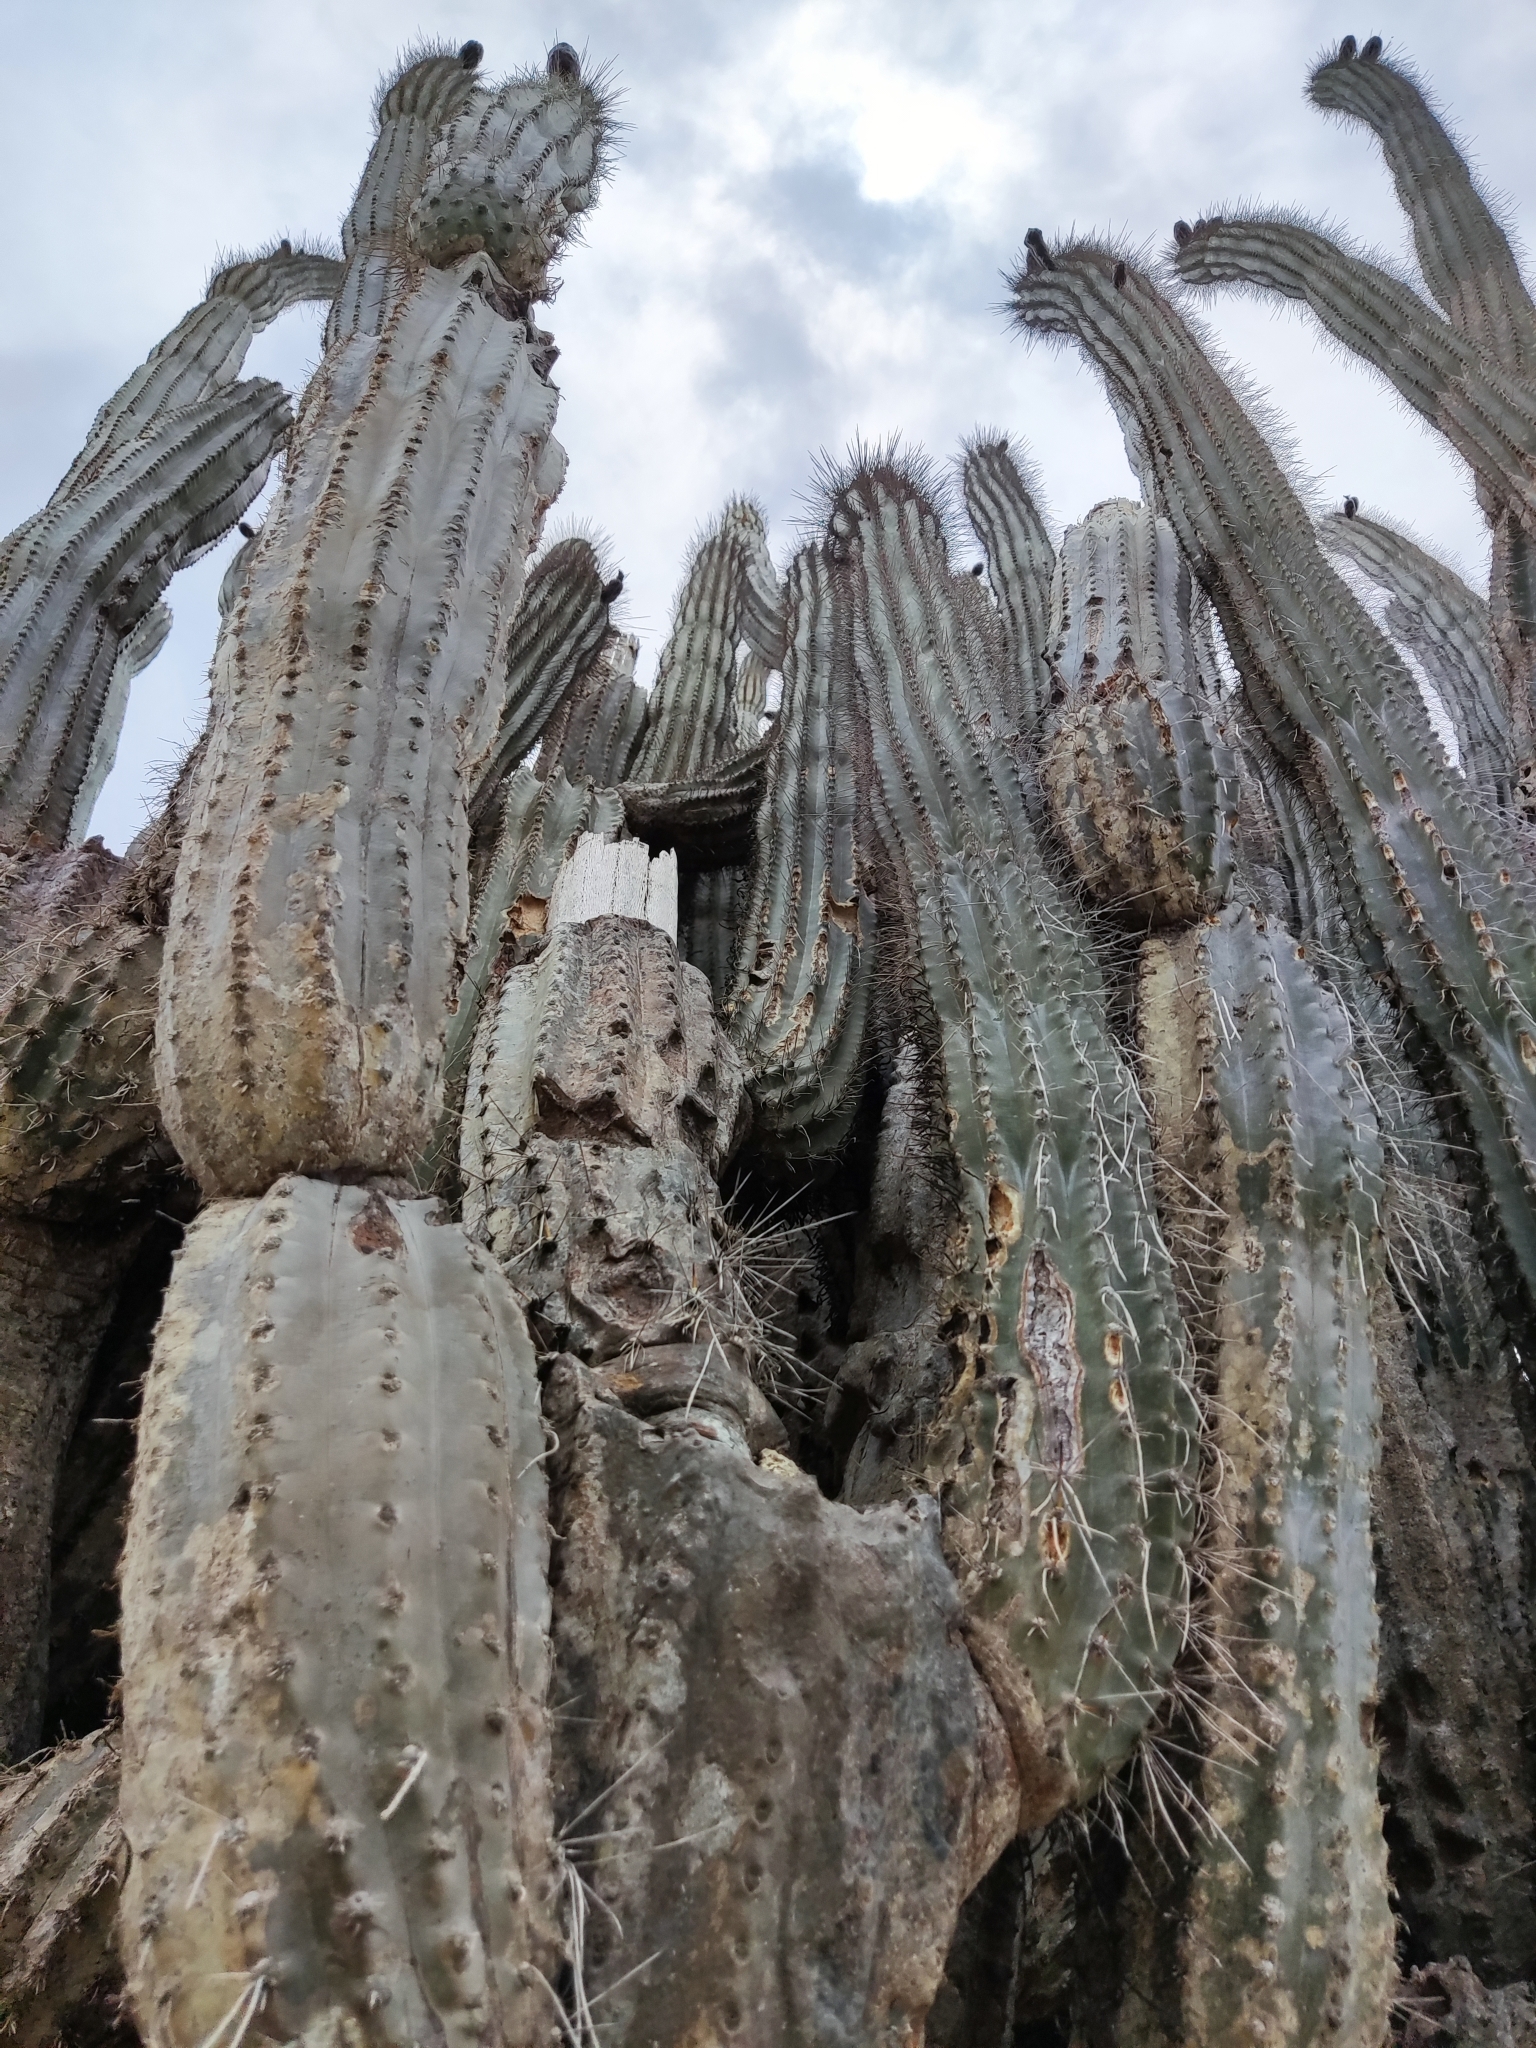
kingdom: Plantae
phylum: Tracheophyta
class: Magnoliopsida
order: Caryophyllales
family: Cactaceae
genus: Cereus
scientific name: Cereus repandus
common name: Sweetpotato cactus
